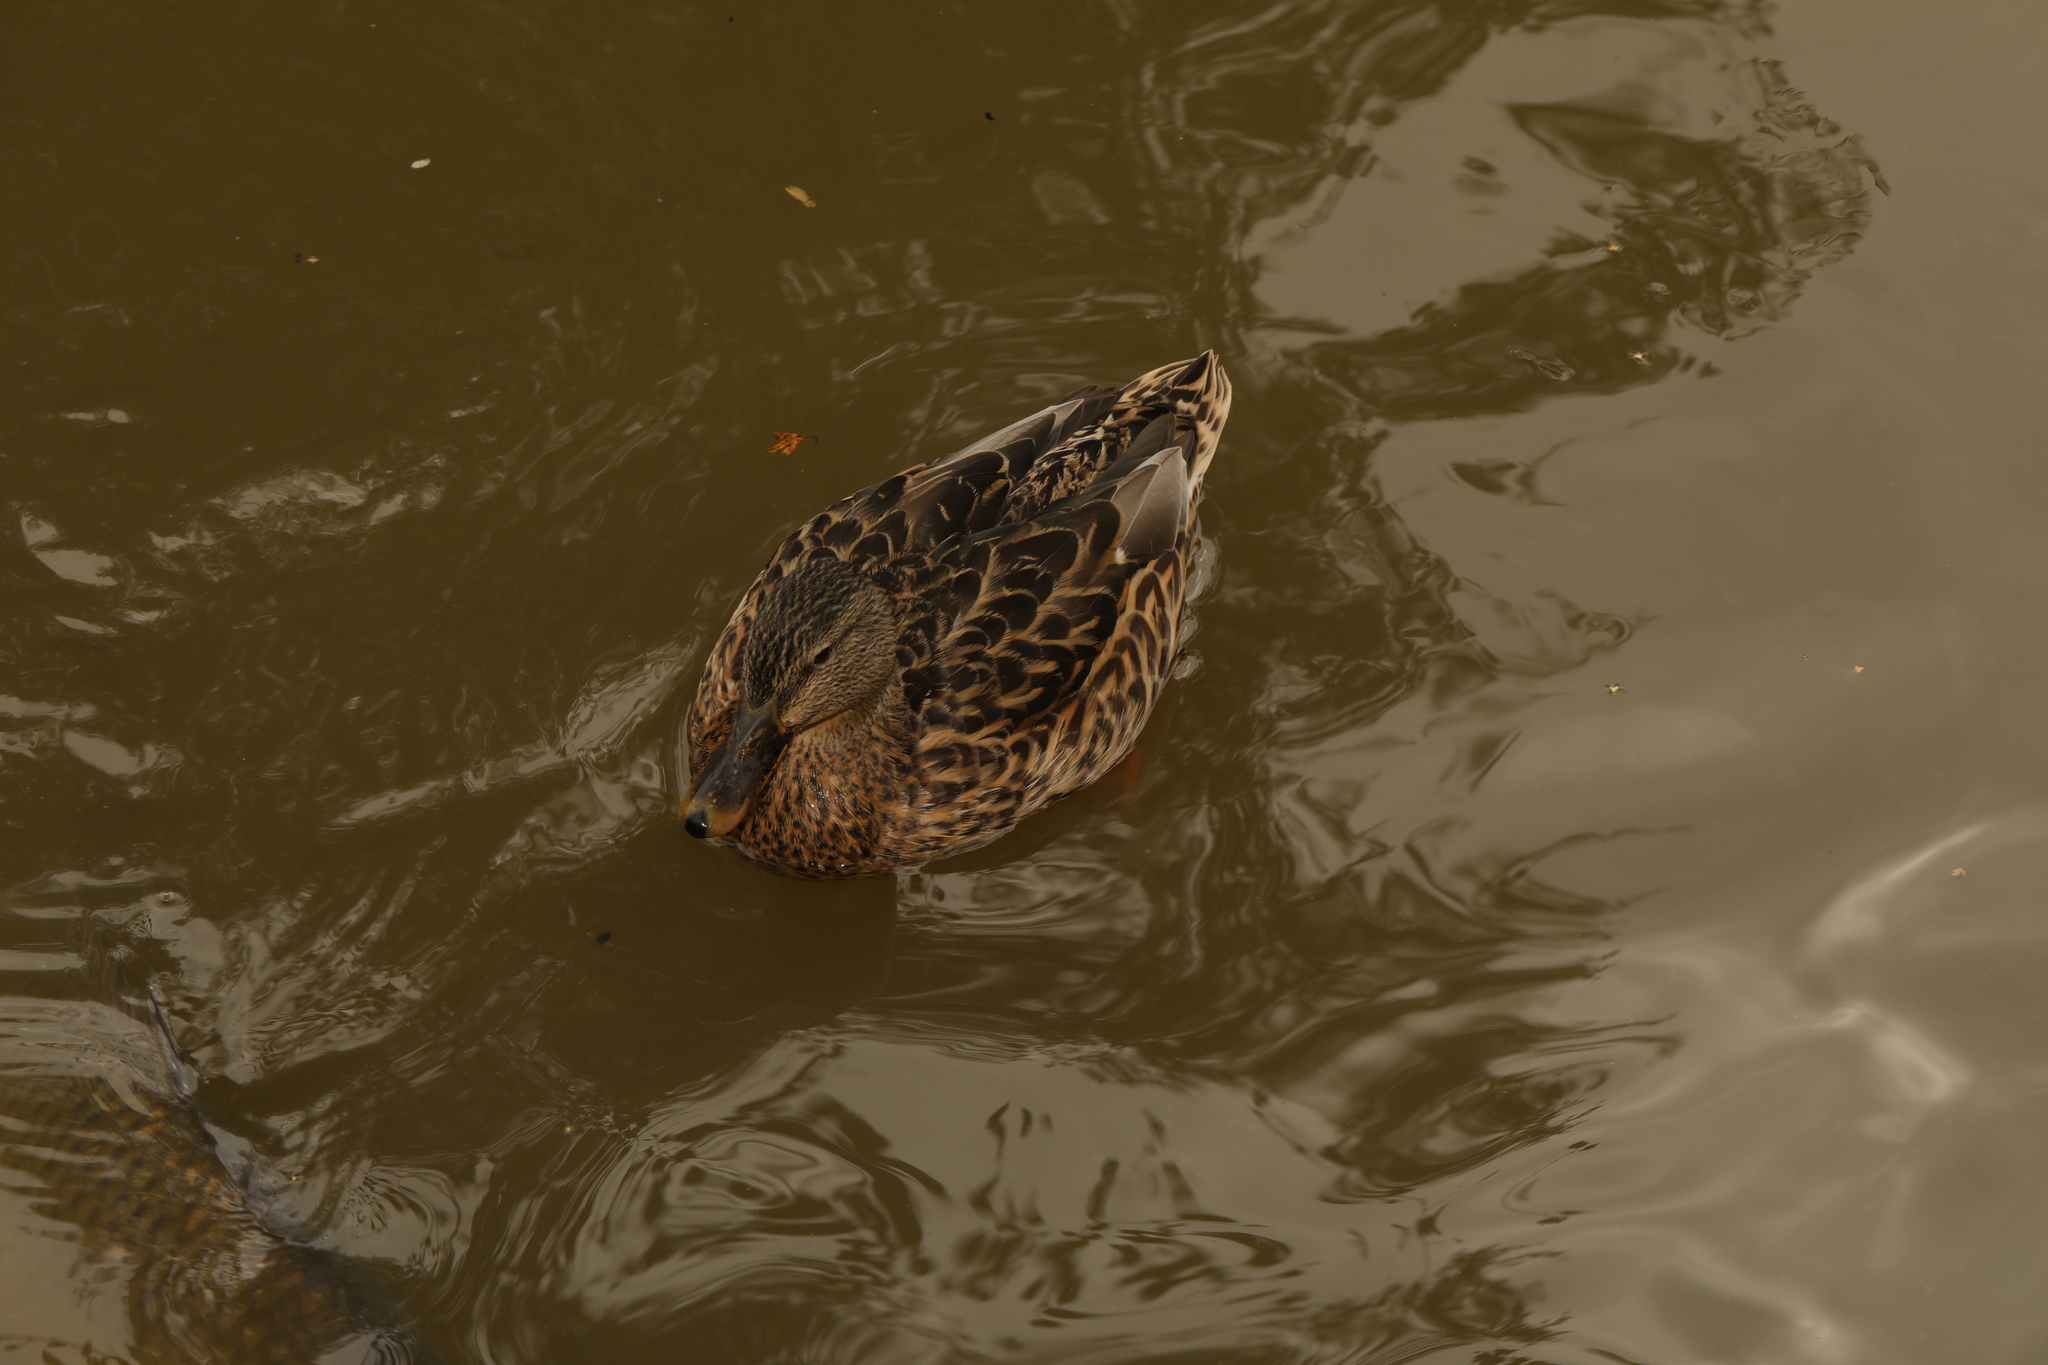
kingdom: Animalia
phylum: Chordata
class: Aves
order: Anseriformes
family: Anatidae
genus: Anas
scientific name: Anas platyrhynchos
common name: Mallard
